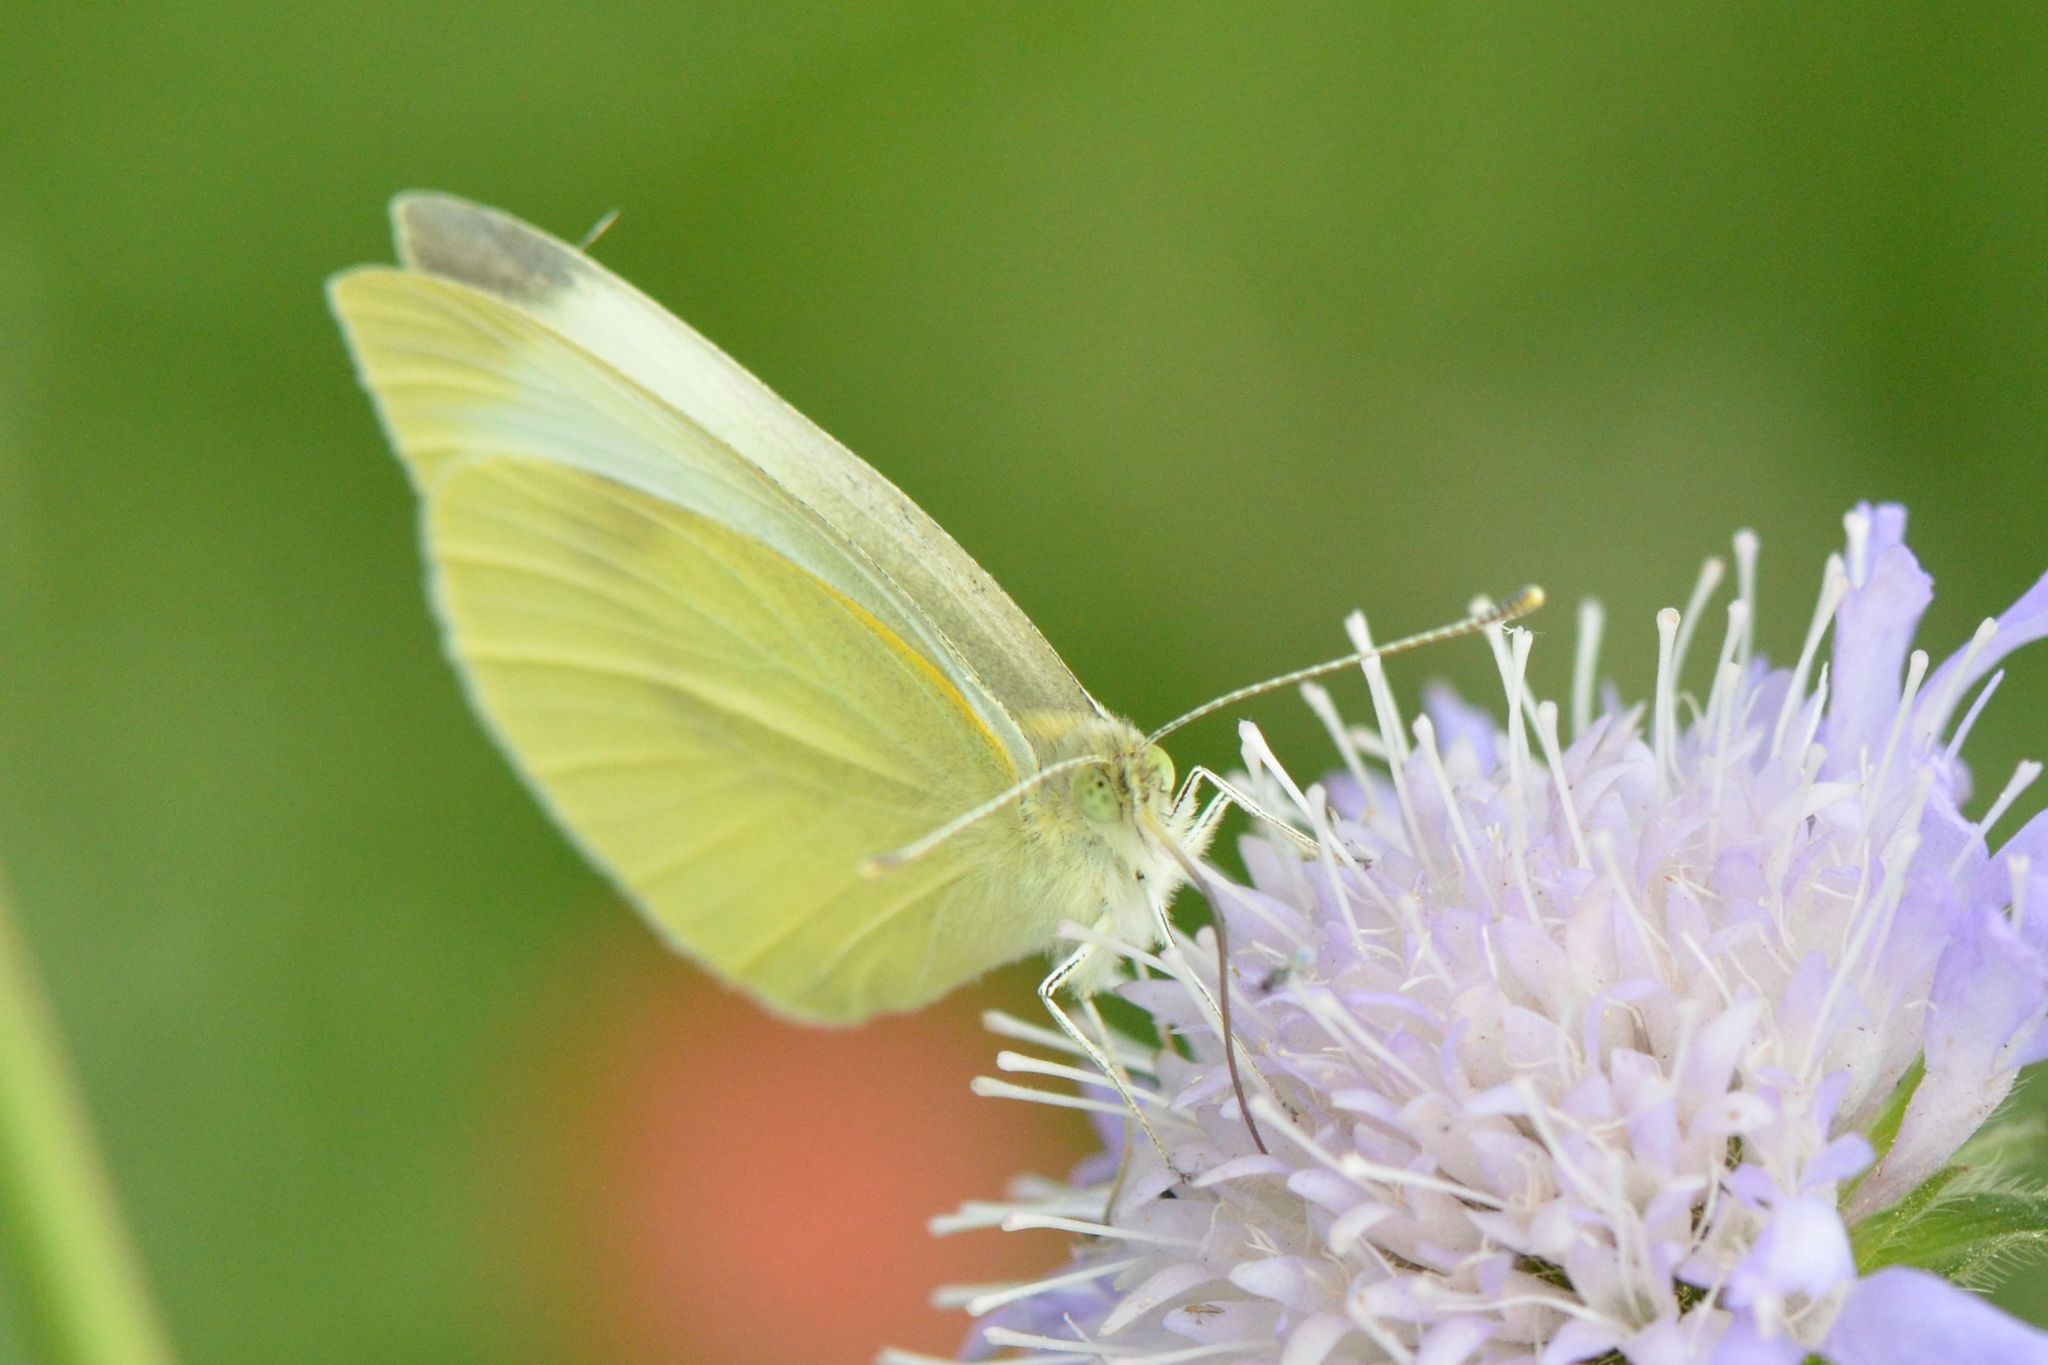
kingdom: Animalia
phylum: Arthropoda
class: Insecta
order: Lepidoptera
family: Pieridae
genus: Pieris
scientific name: Pieris rapae
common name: Small white
